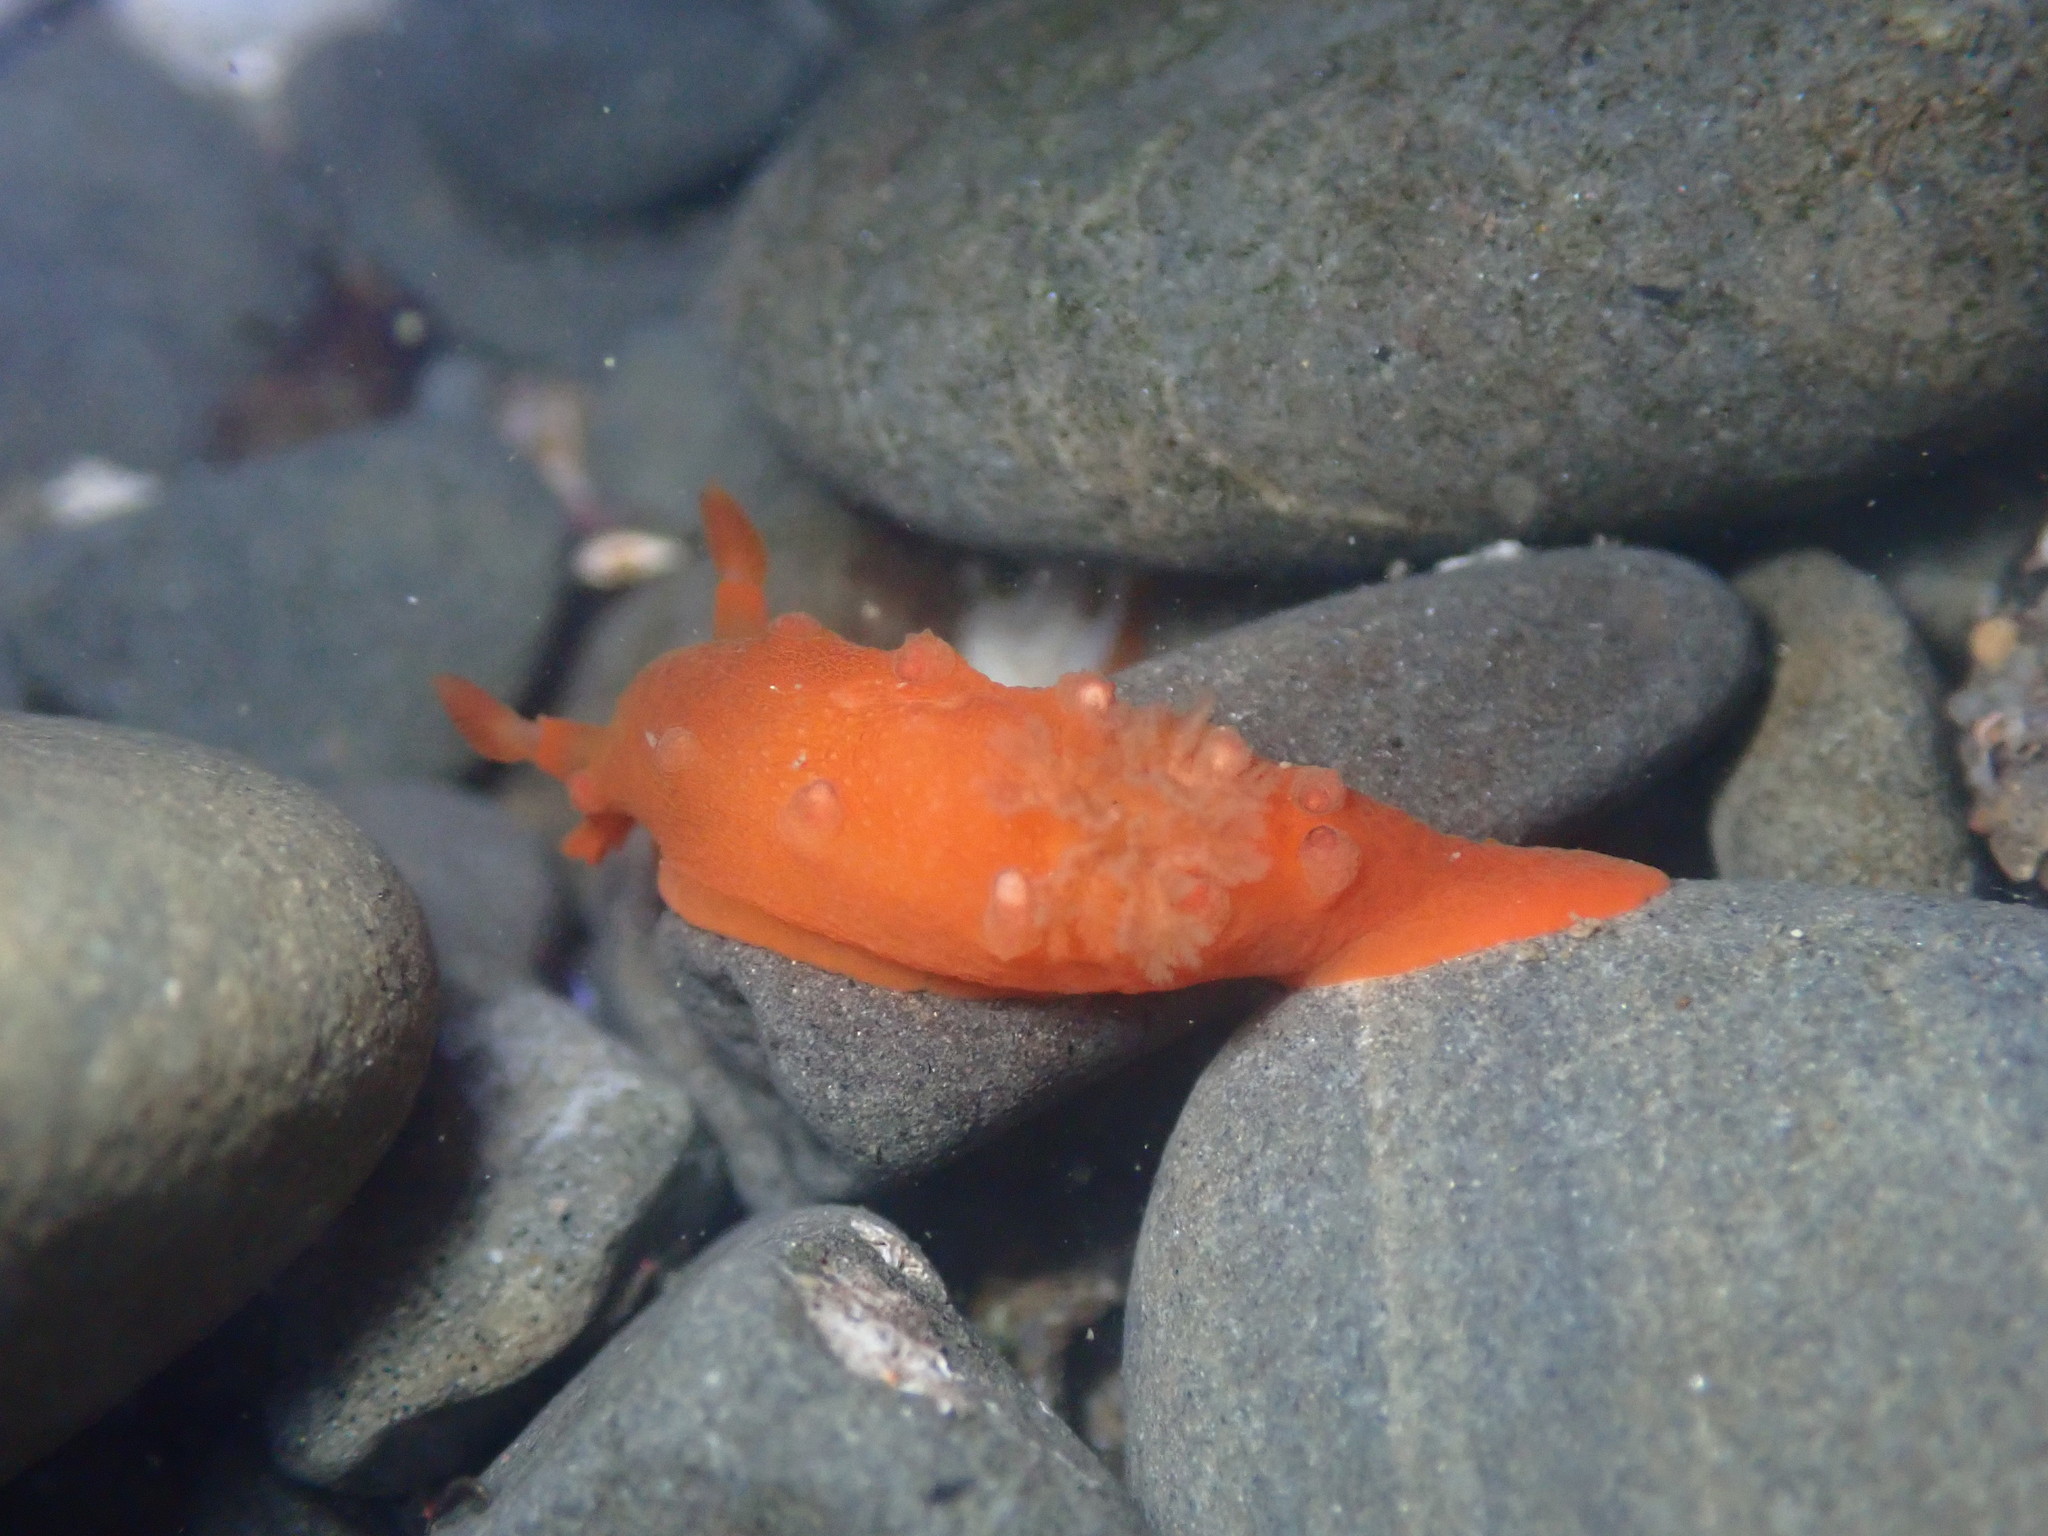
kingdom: Animalia
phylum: Mollusca
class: Gastropoda
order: Nudibranchia
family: Polyceridae
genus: Triopha
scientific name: Triopha maculata
